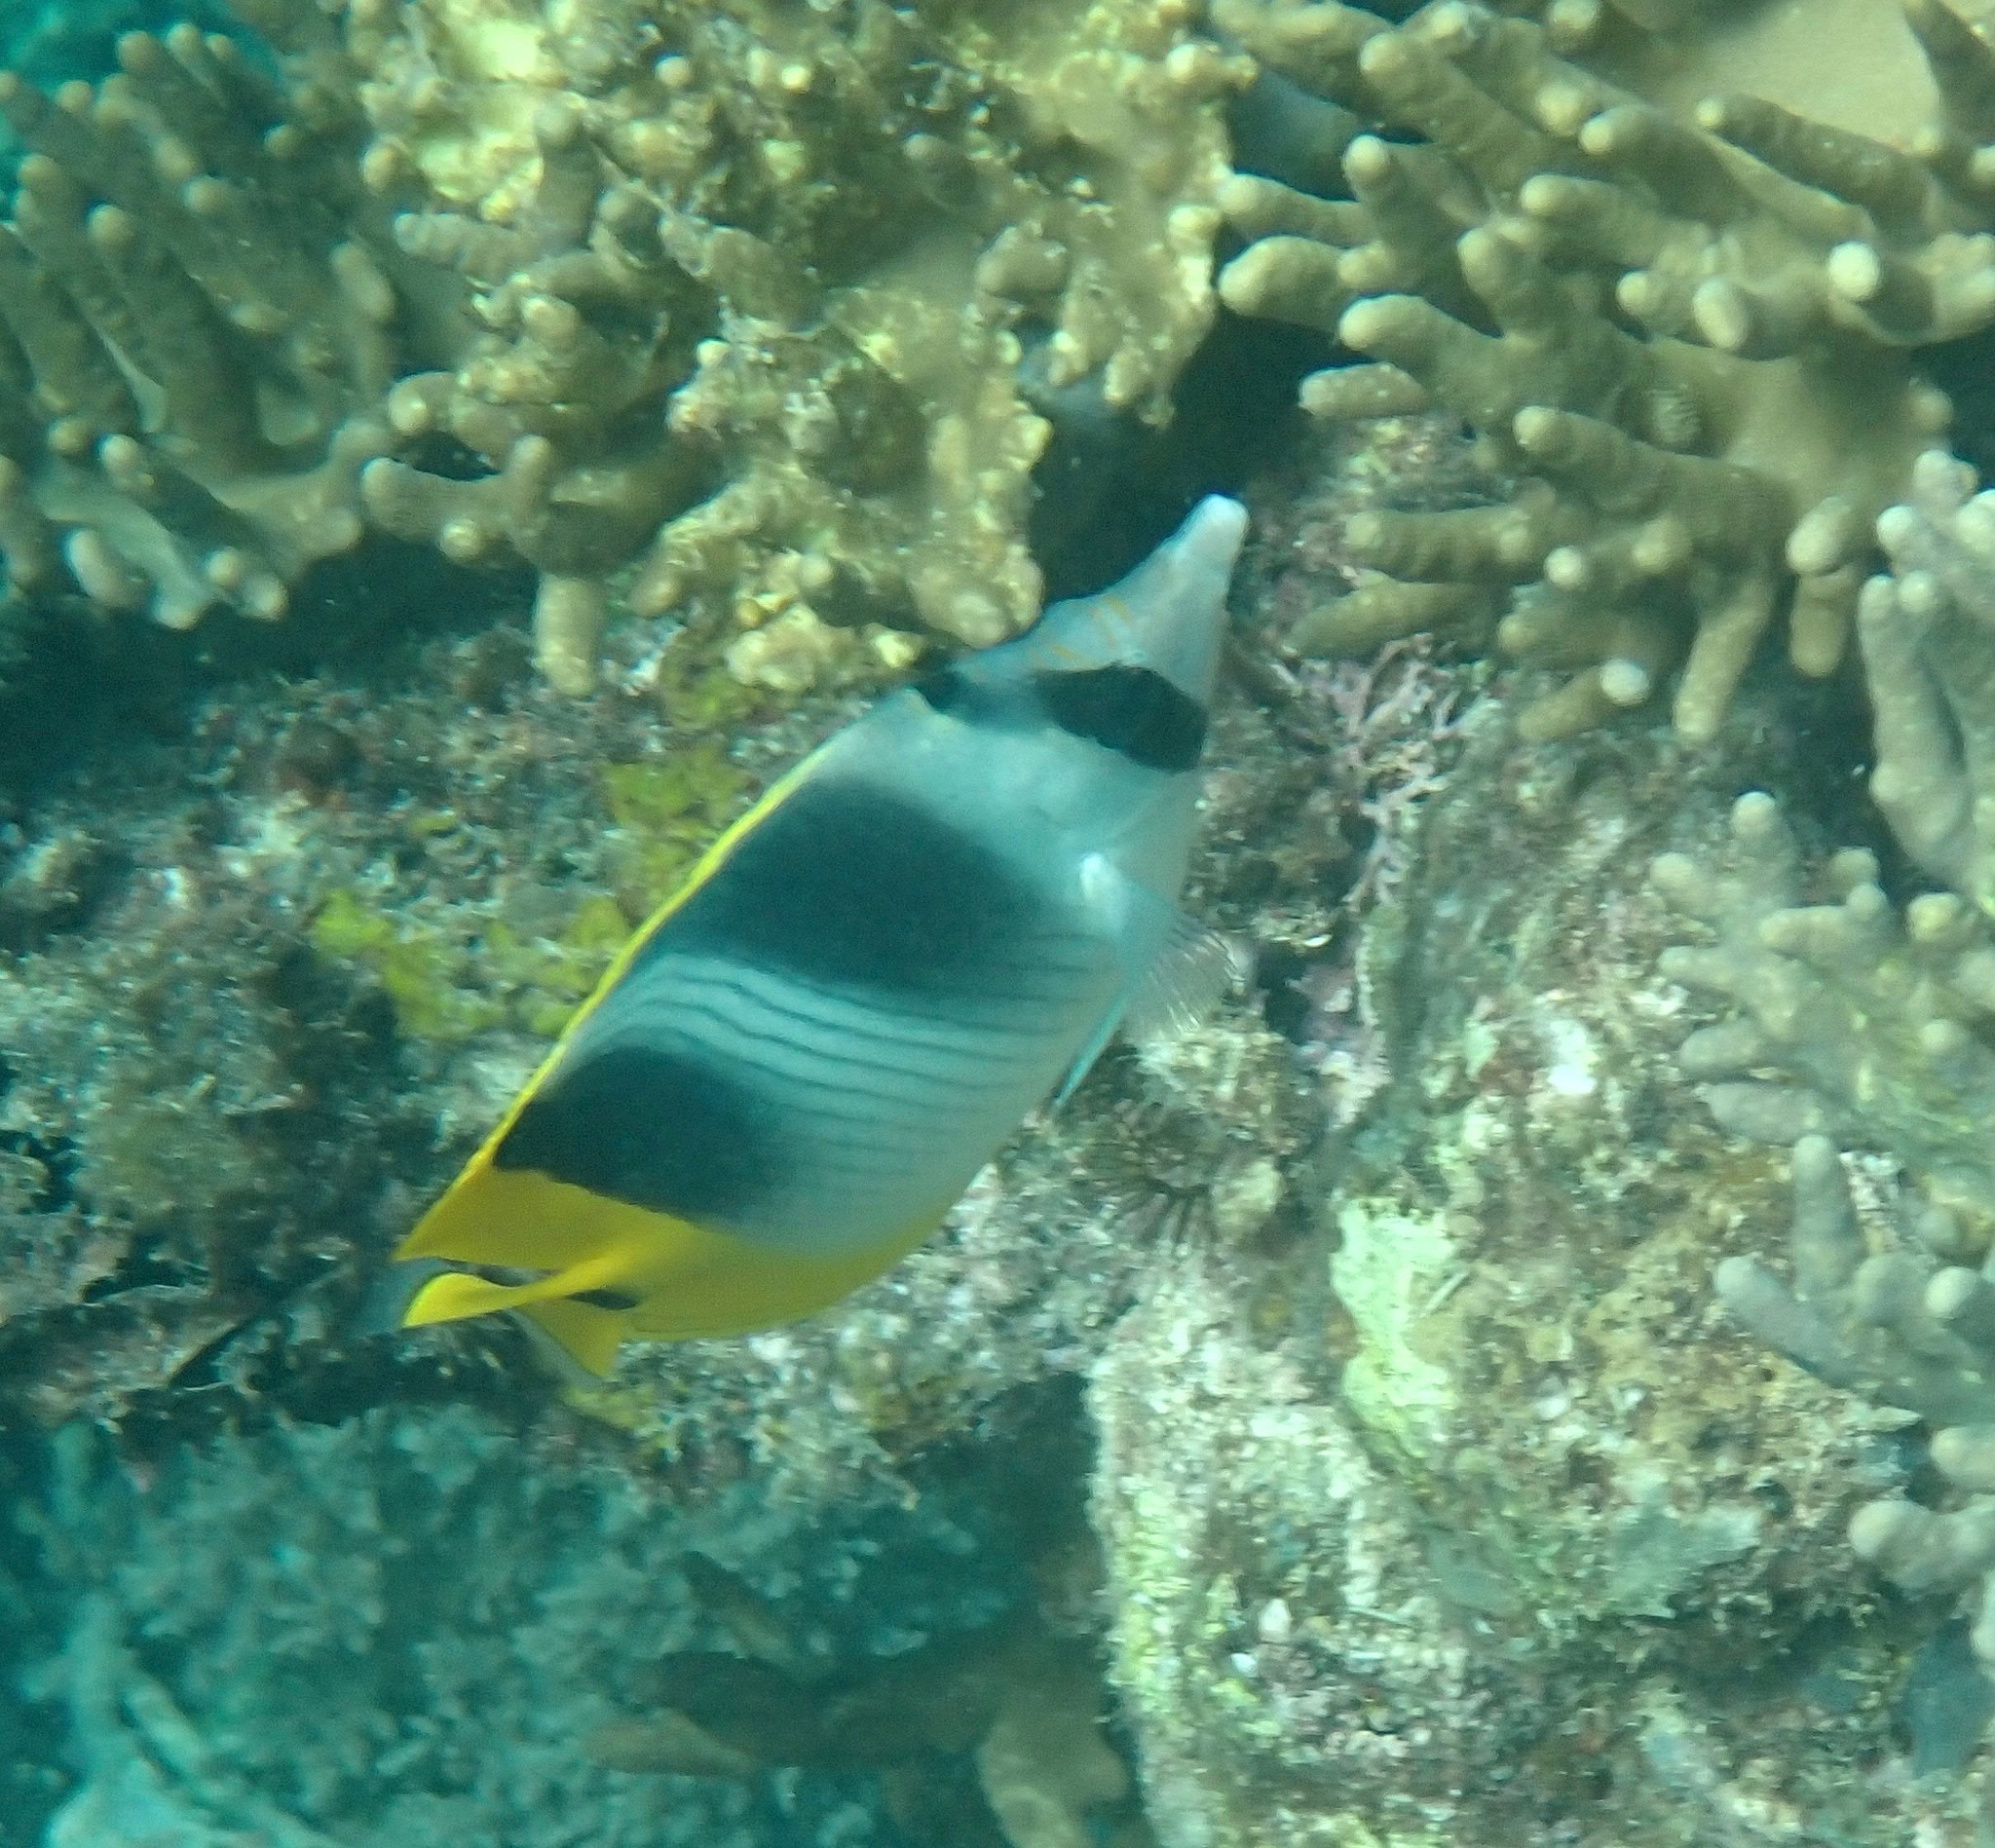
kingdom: Animalia
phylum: Chordata
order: Perciformes
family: Chaetodontidae
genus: Chaetodon
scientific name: Chaetodon ulietensis
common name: Pacific double-saddle butterflyfish
